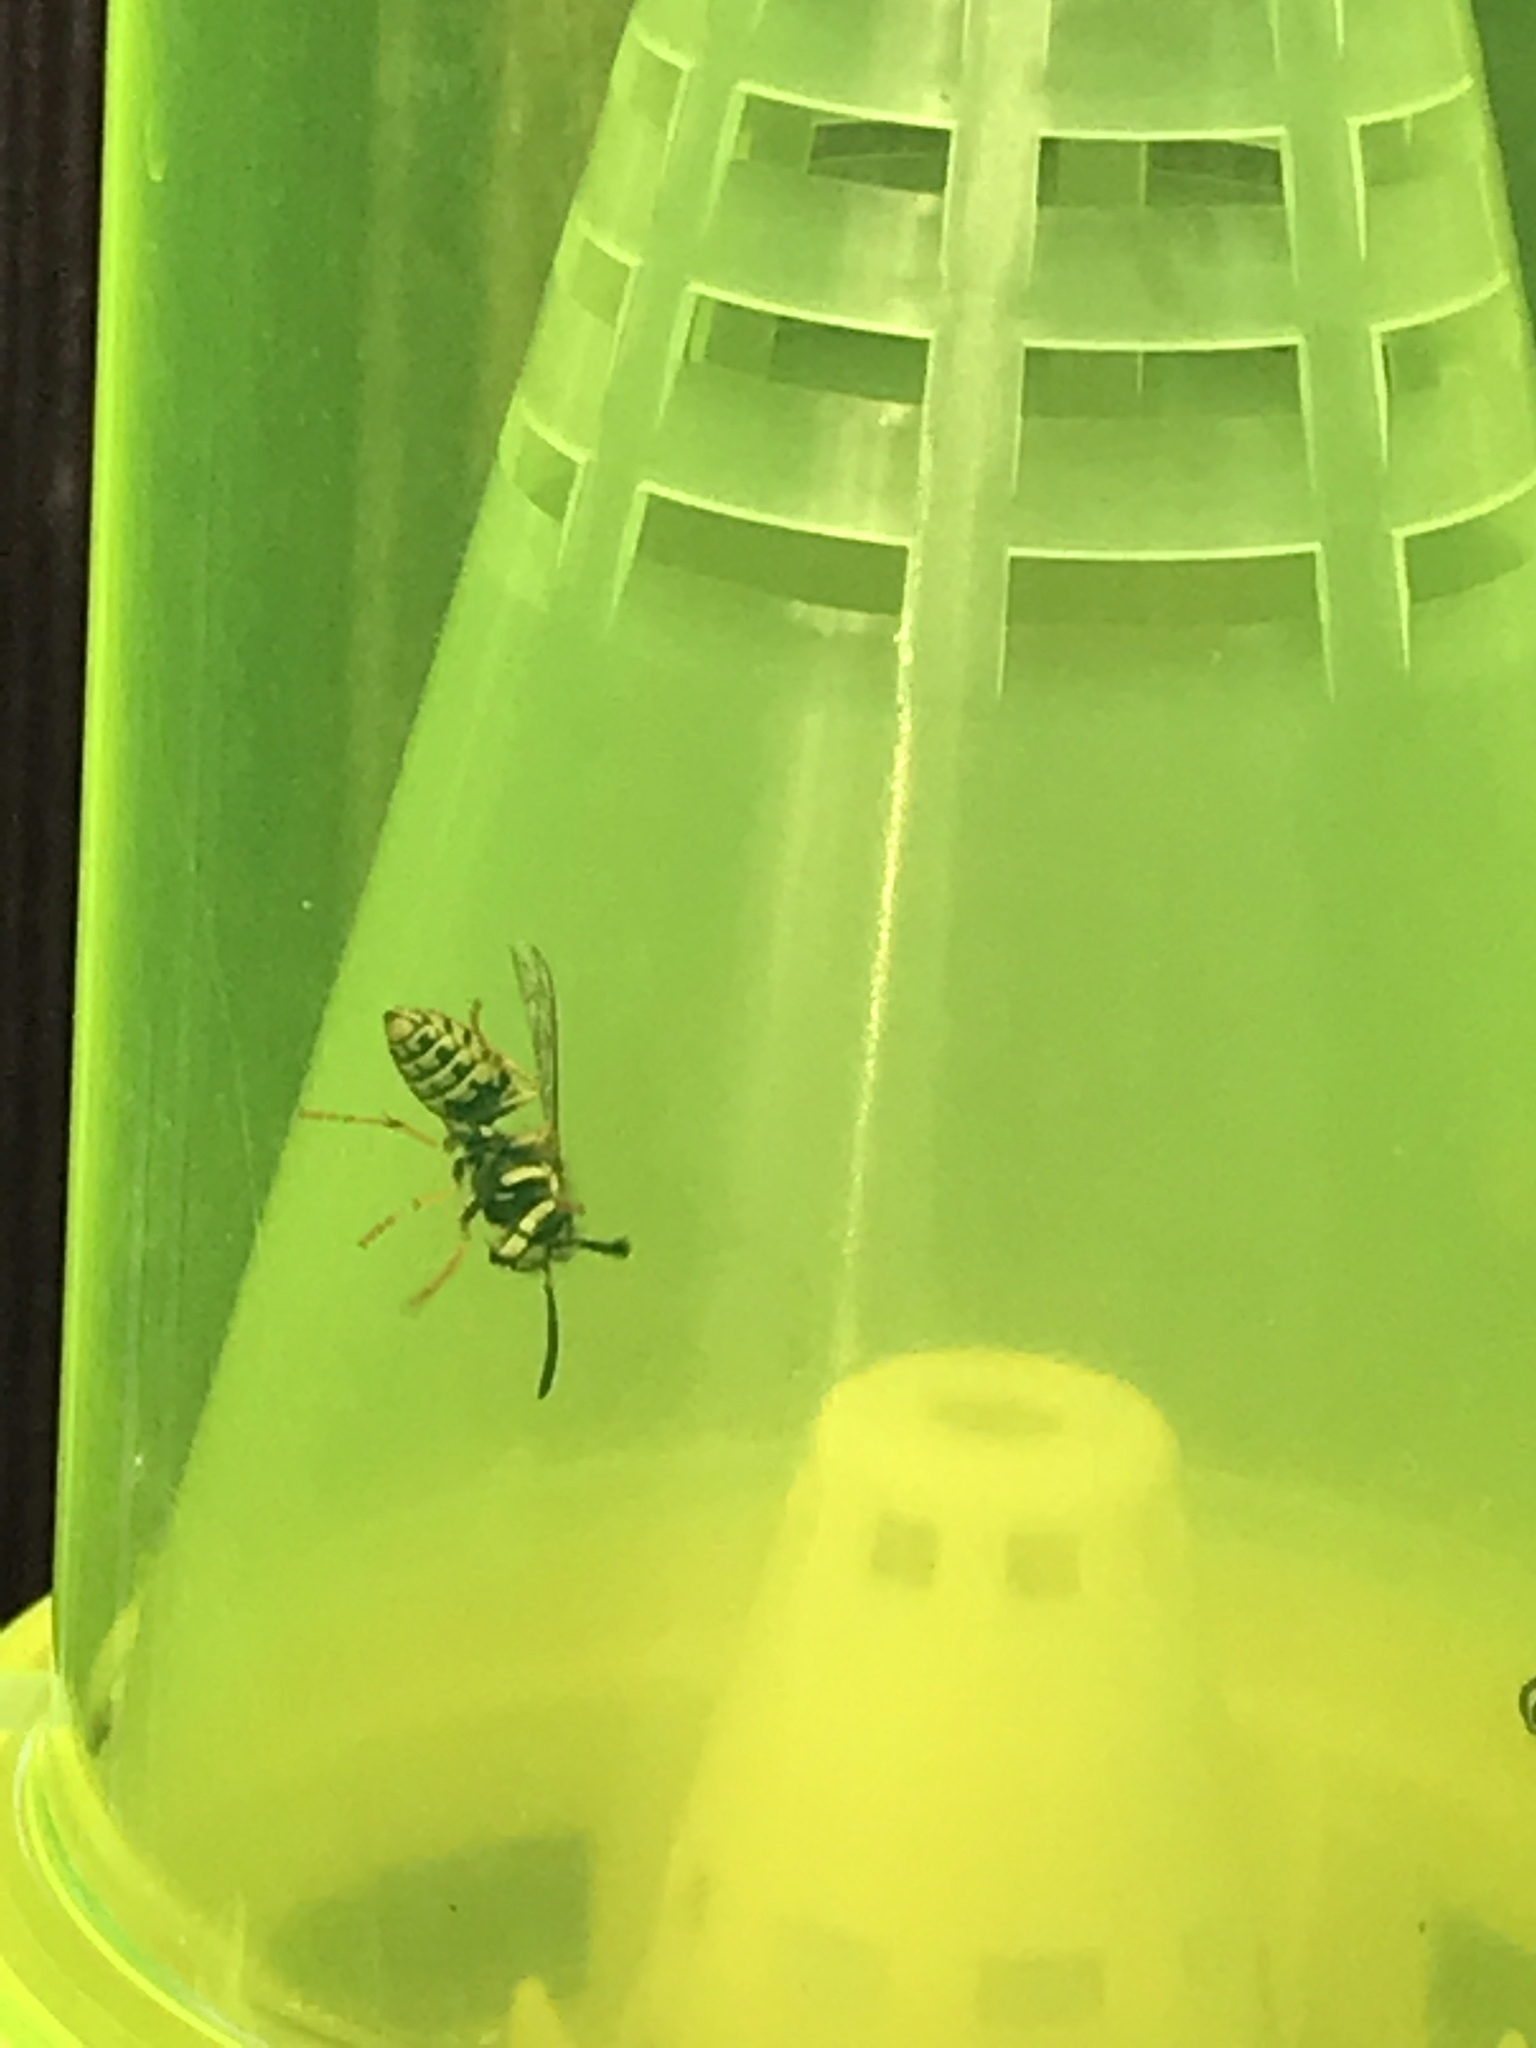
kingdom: Animalia
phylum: Arthropoda
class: Insecta
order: Hymenoptera
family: Vespidae
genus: Vespula
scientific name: Vespula
